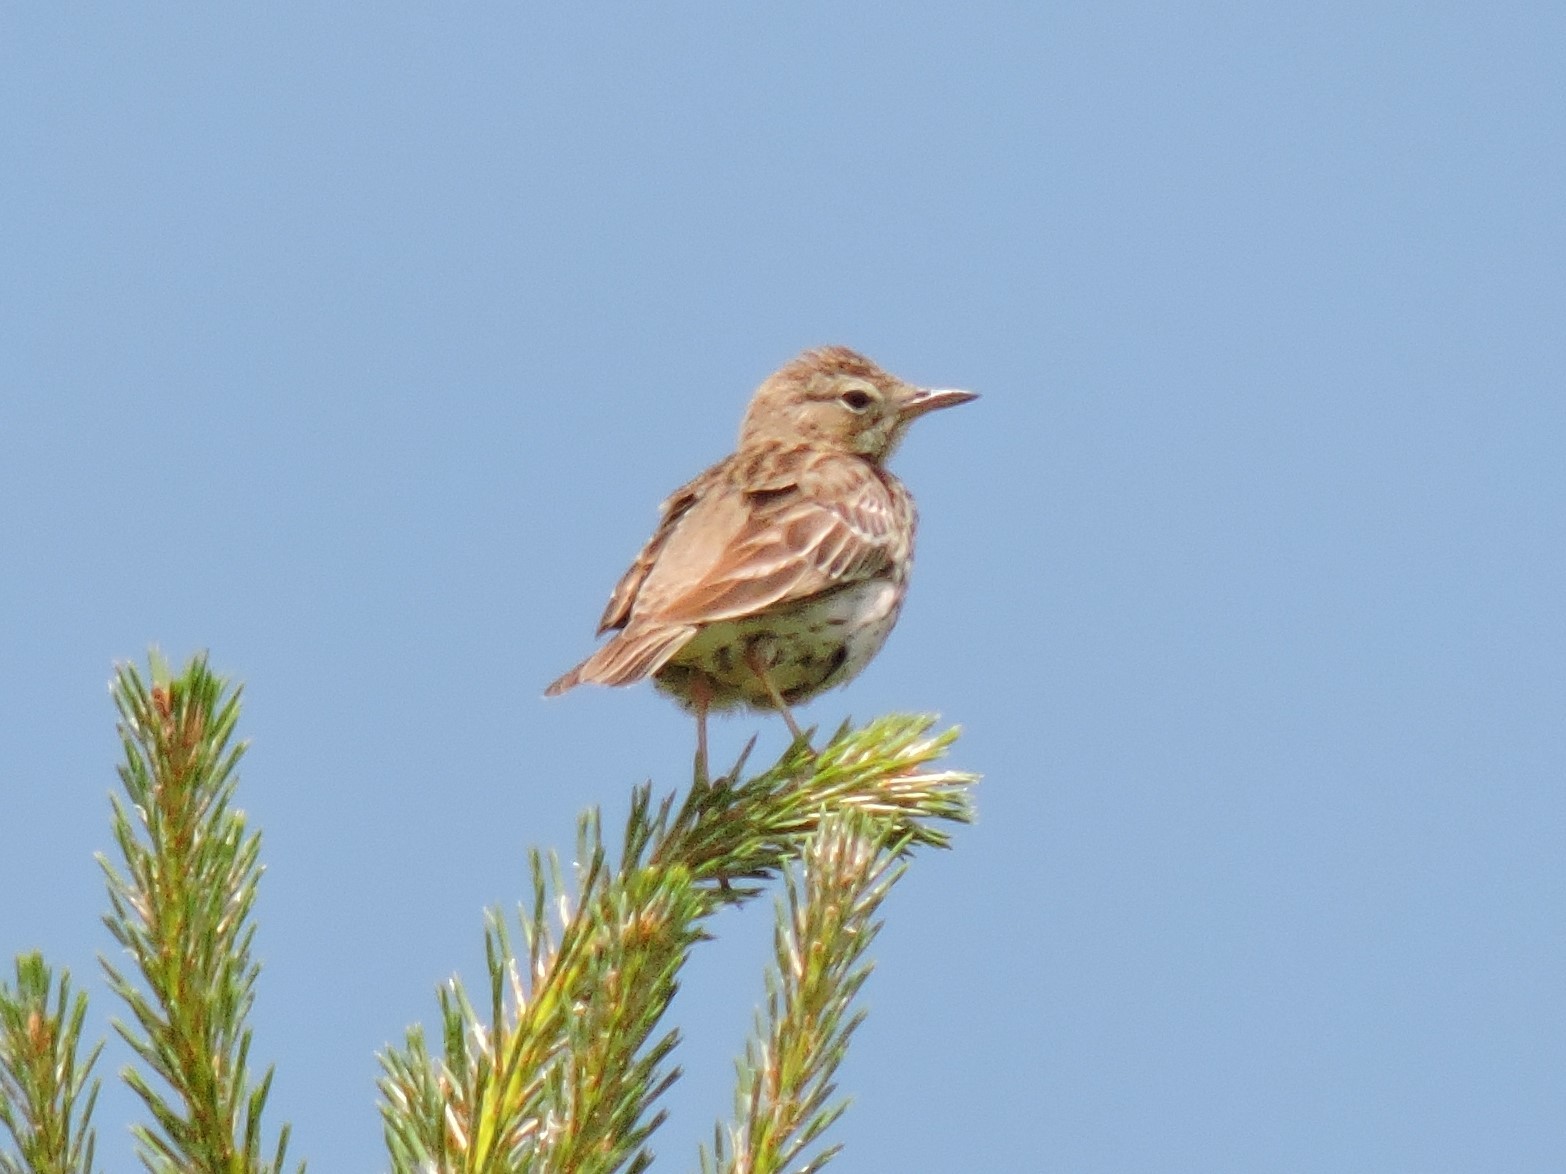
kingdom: Animalia
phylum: Chordata
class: Aves
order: Passeriformes
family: Motacillidae
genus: Anthus
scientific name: Anthus trivialis
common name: Tree pipit
